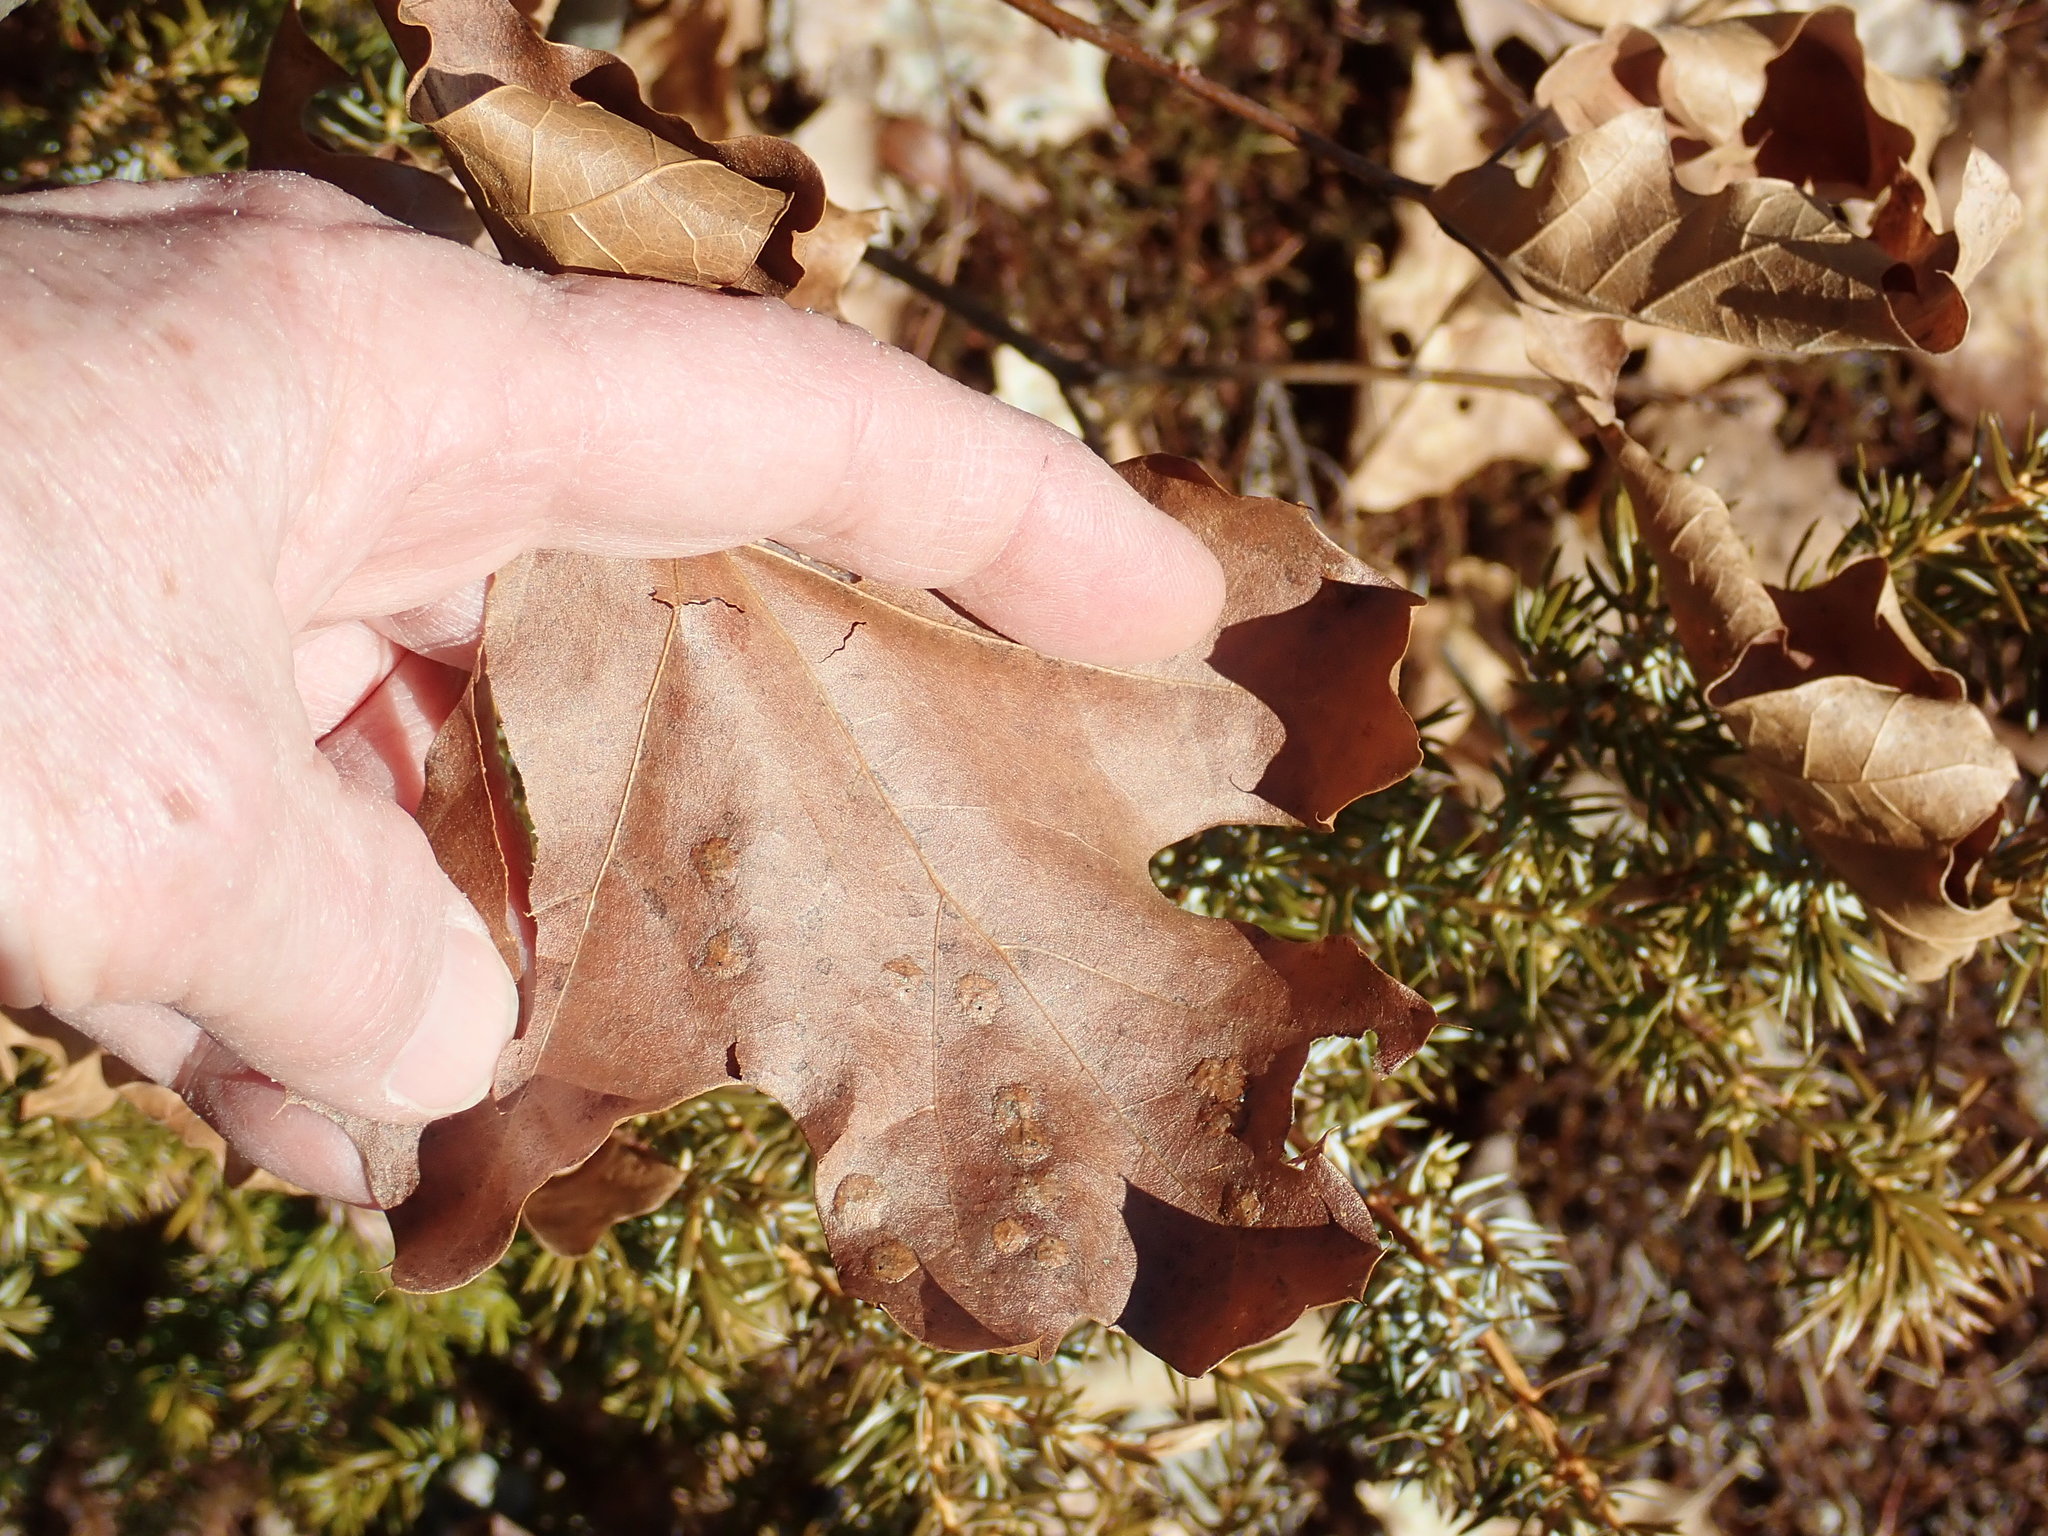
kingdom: Plantae
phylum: Tracheophyta
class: Magnoliopsida
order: Fagales
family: Fagaceae
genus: Quercus
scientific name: Quercus velutina
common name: Black oak
